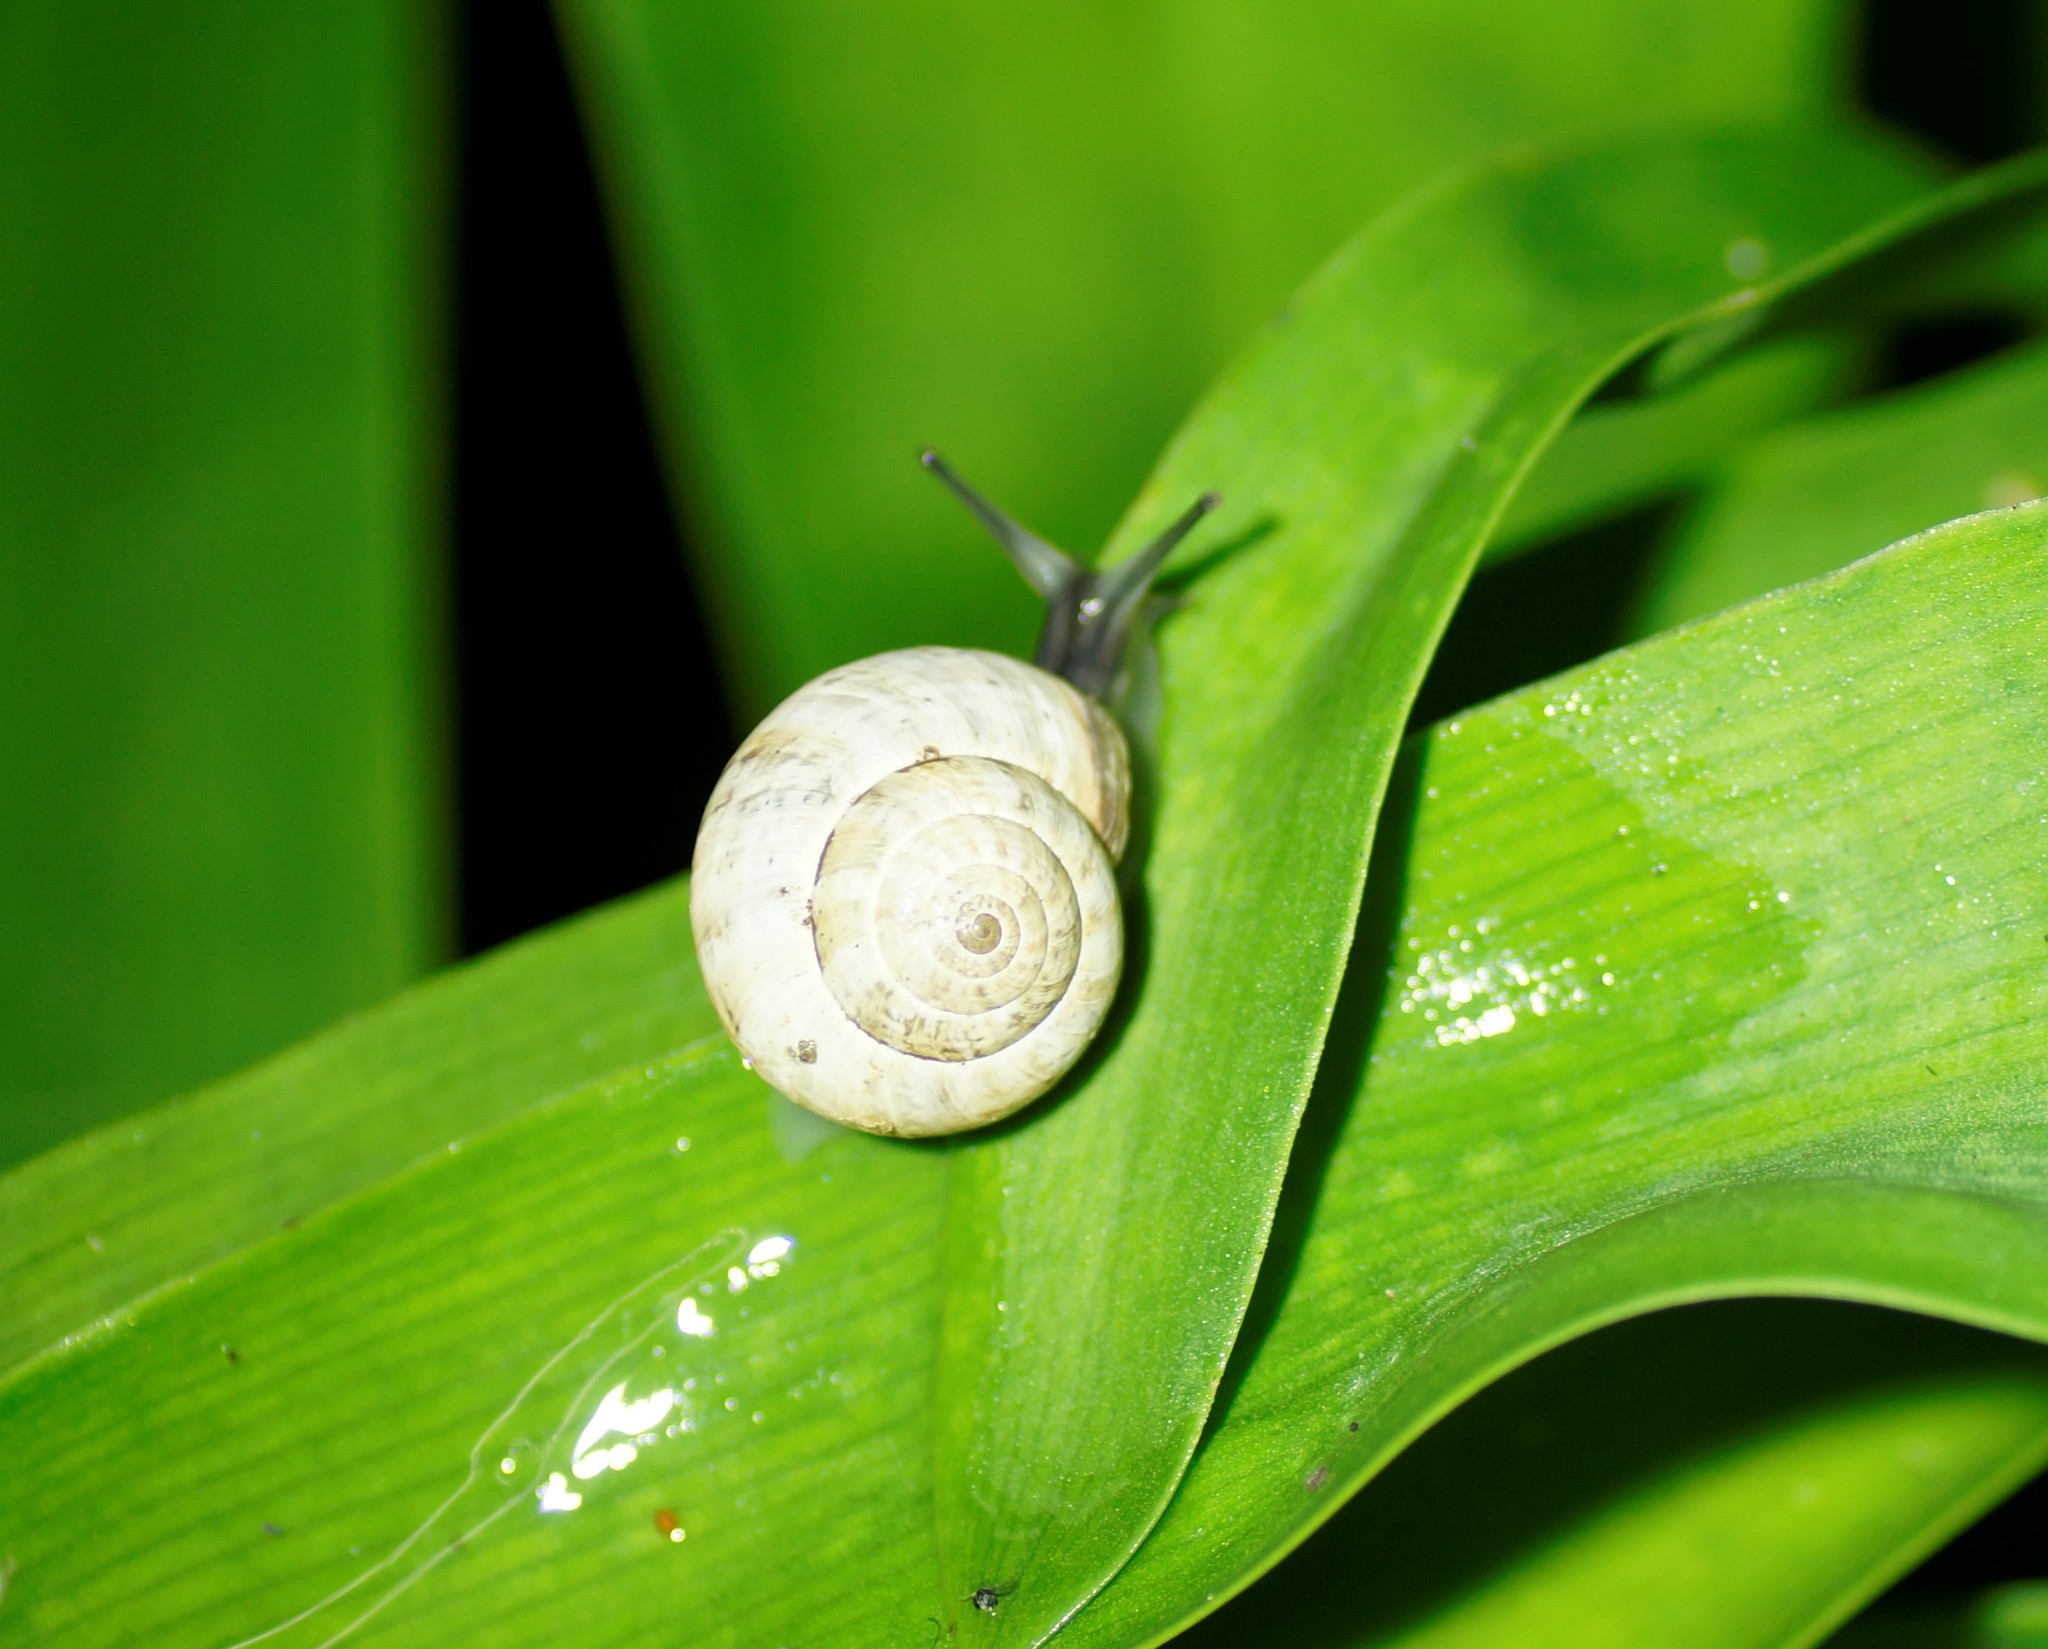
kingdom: Animalia
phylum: Mollusca
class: Gastropoda
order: Stylommatophora
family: Helicidae
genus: Theba
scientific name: Theba pisana
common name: White snail
